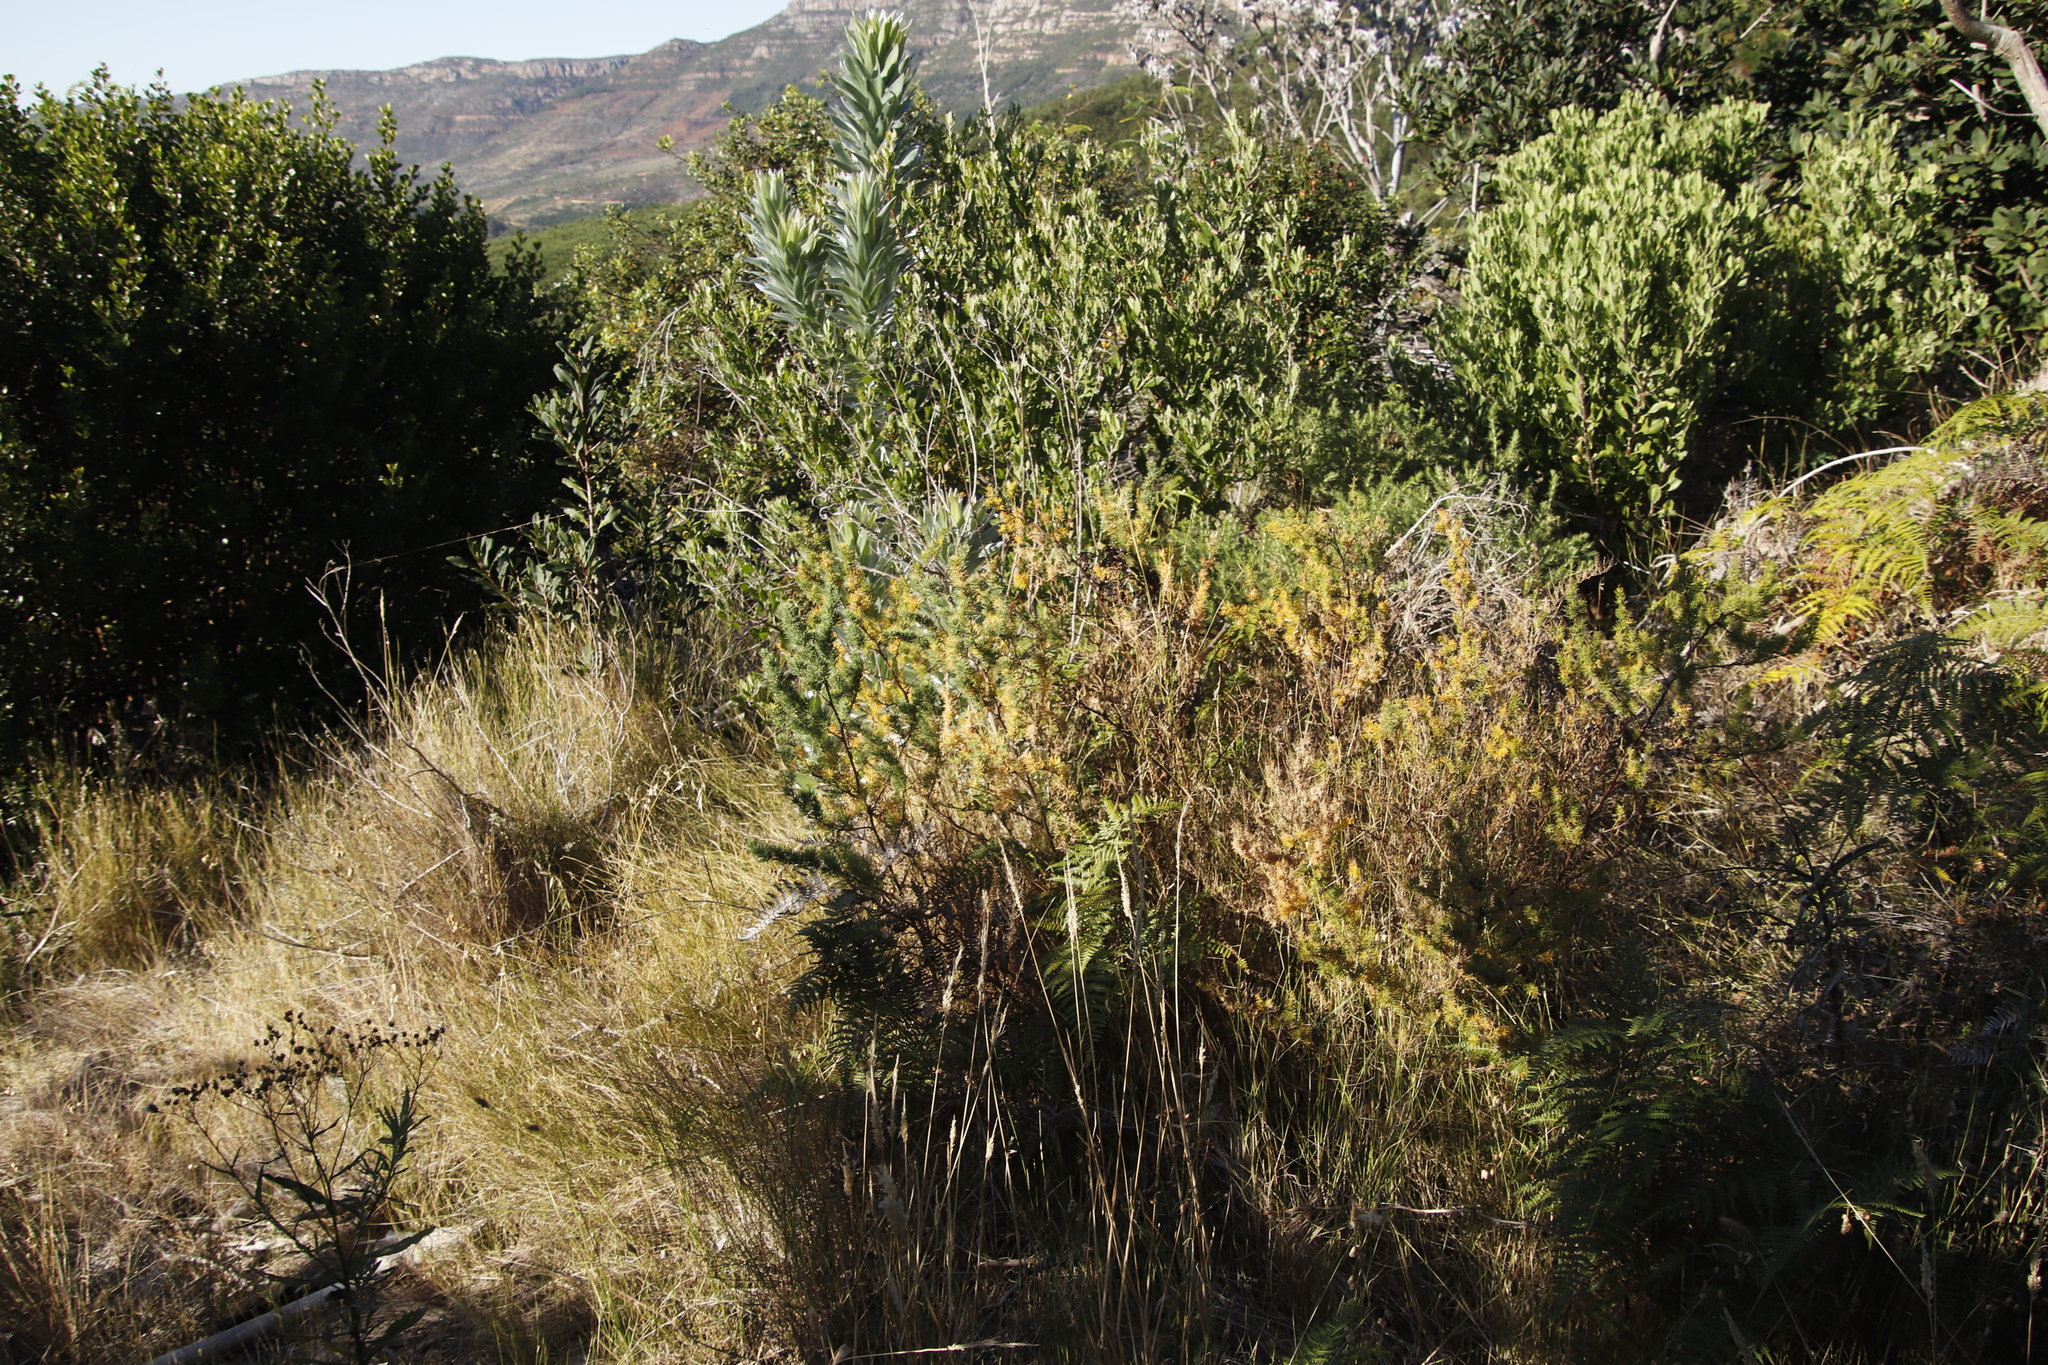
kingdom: Plantae
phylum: Tracheophyta
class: Liliopsida
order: Asparagales
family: Asparagaceae
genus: Asparagus
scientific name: Asparagus rubicundus
